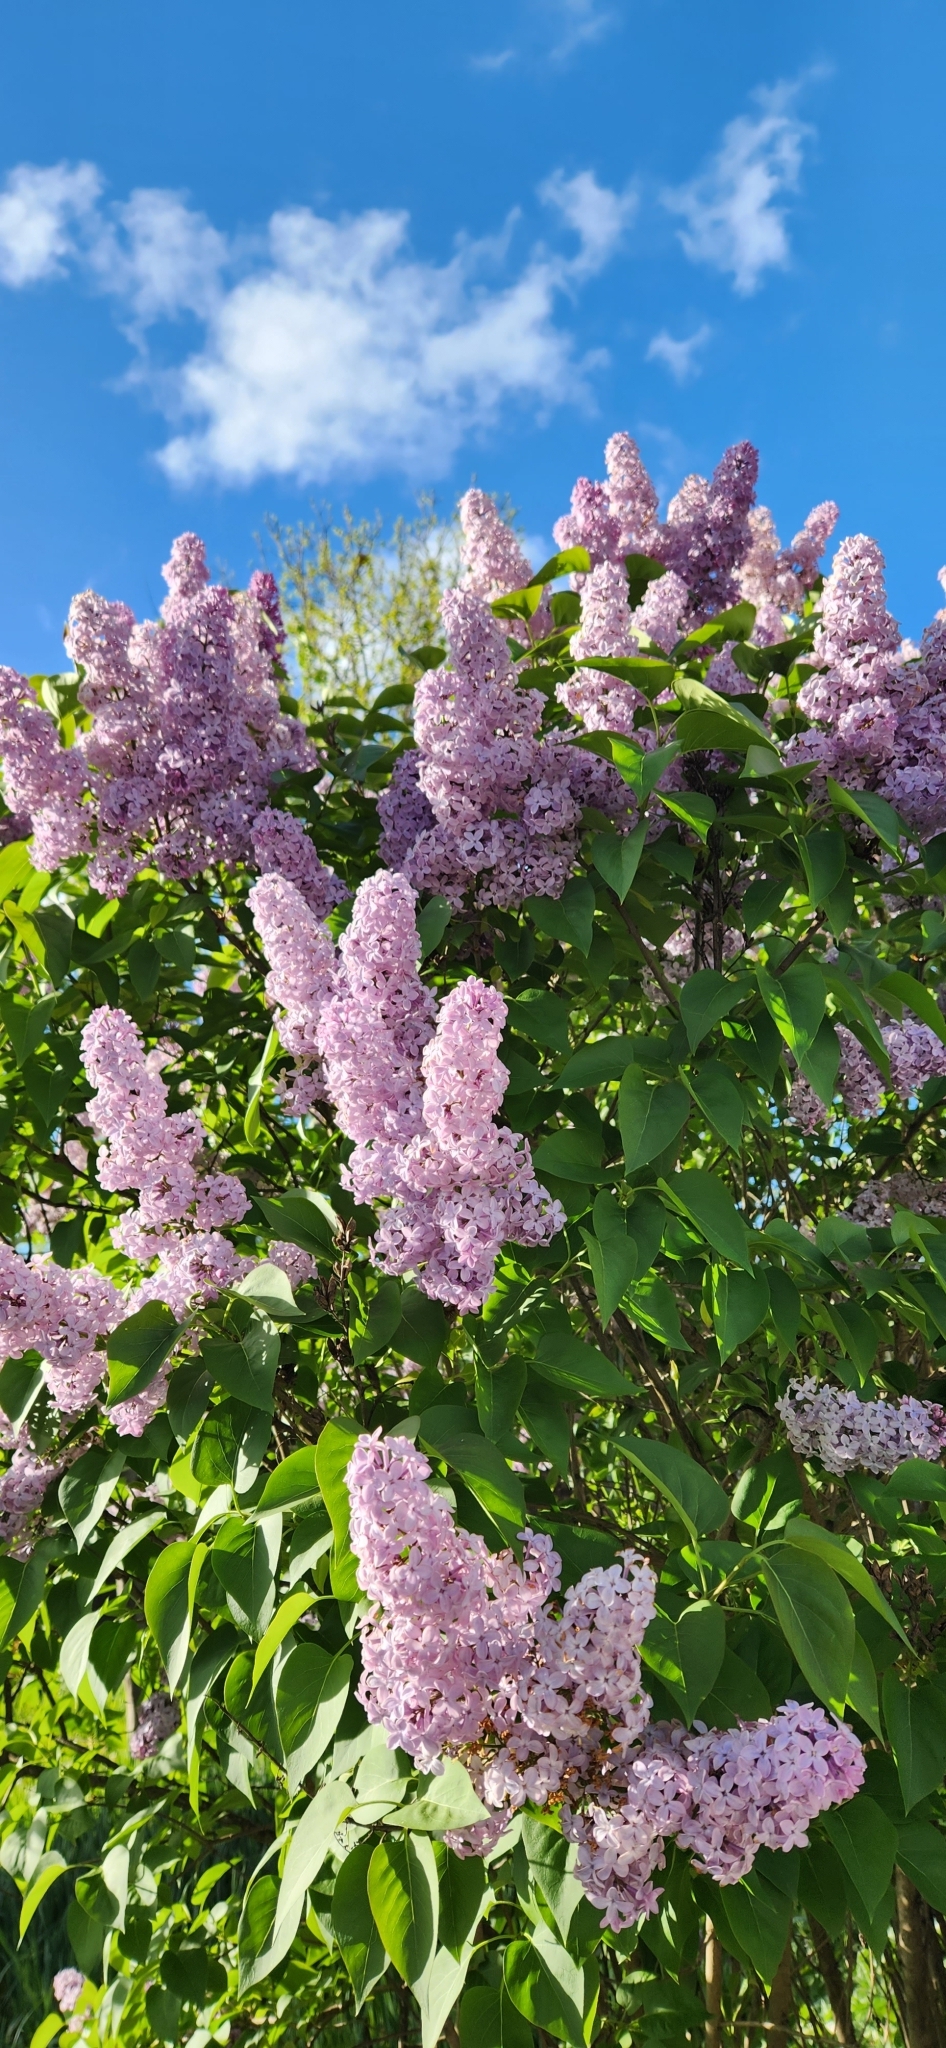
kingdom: Plantae
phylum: Tracheophyta
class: Magnoliopsida
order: Lamiales
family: Oleaceae
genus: Syringa
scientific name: Syringa vulgaris
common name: Common lilac
